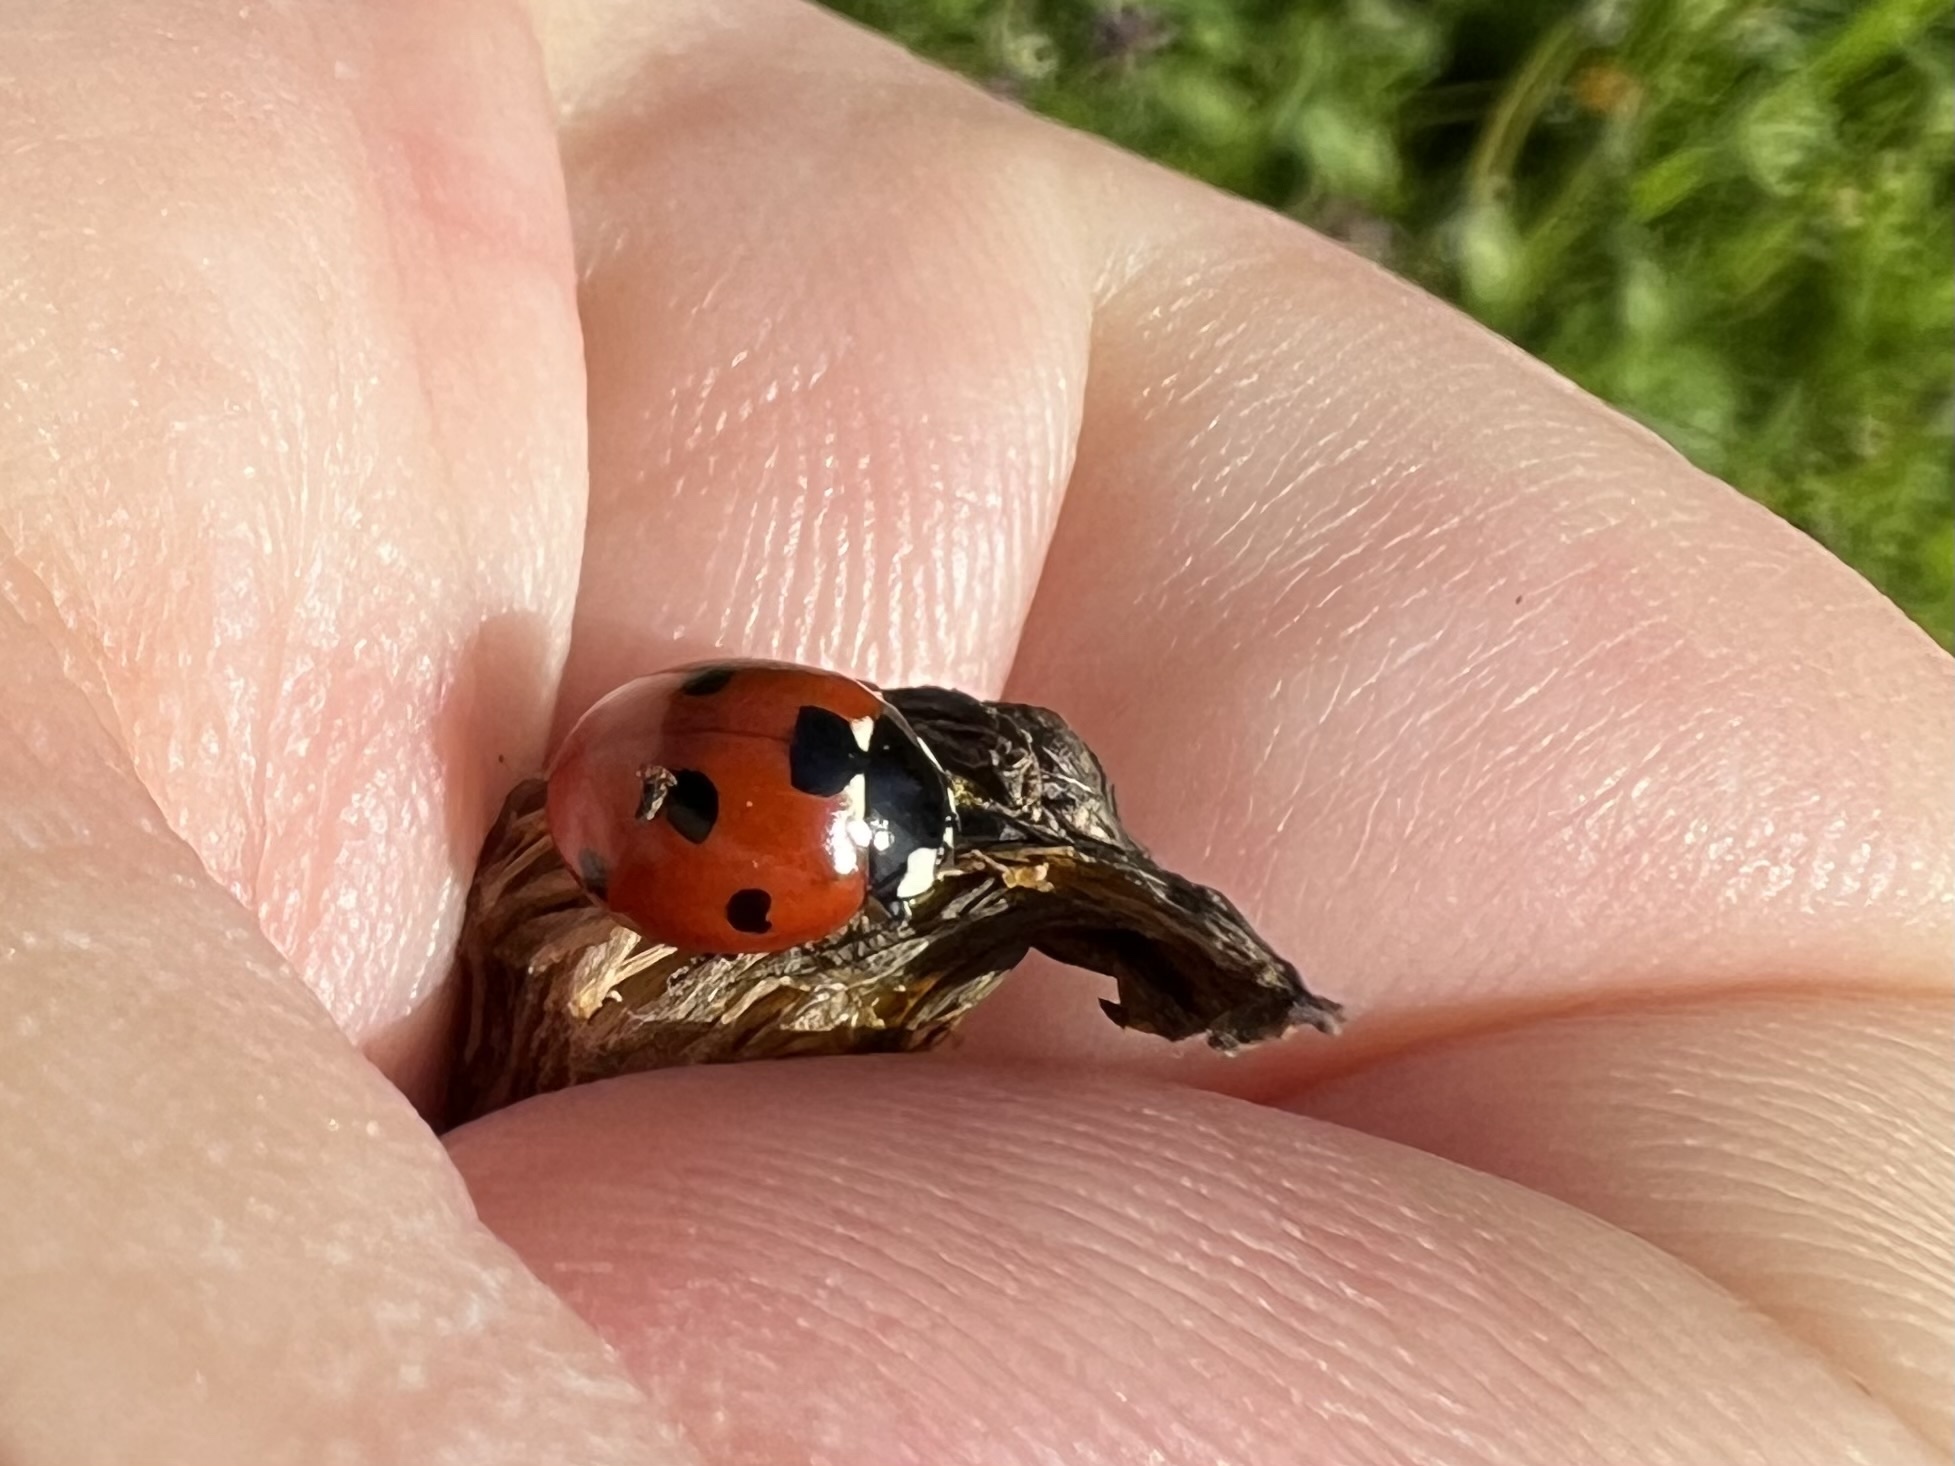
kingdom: Animalia
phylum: Arthropoda
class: Insecta
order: Coleoptera
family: Coccinellidae
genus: Coccinella
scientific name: Coccinella septempunctata
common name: Sevenspotted lady beetle
